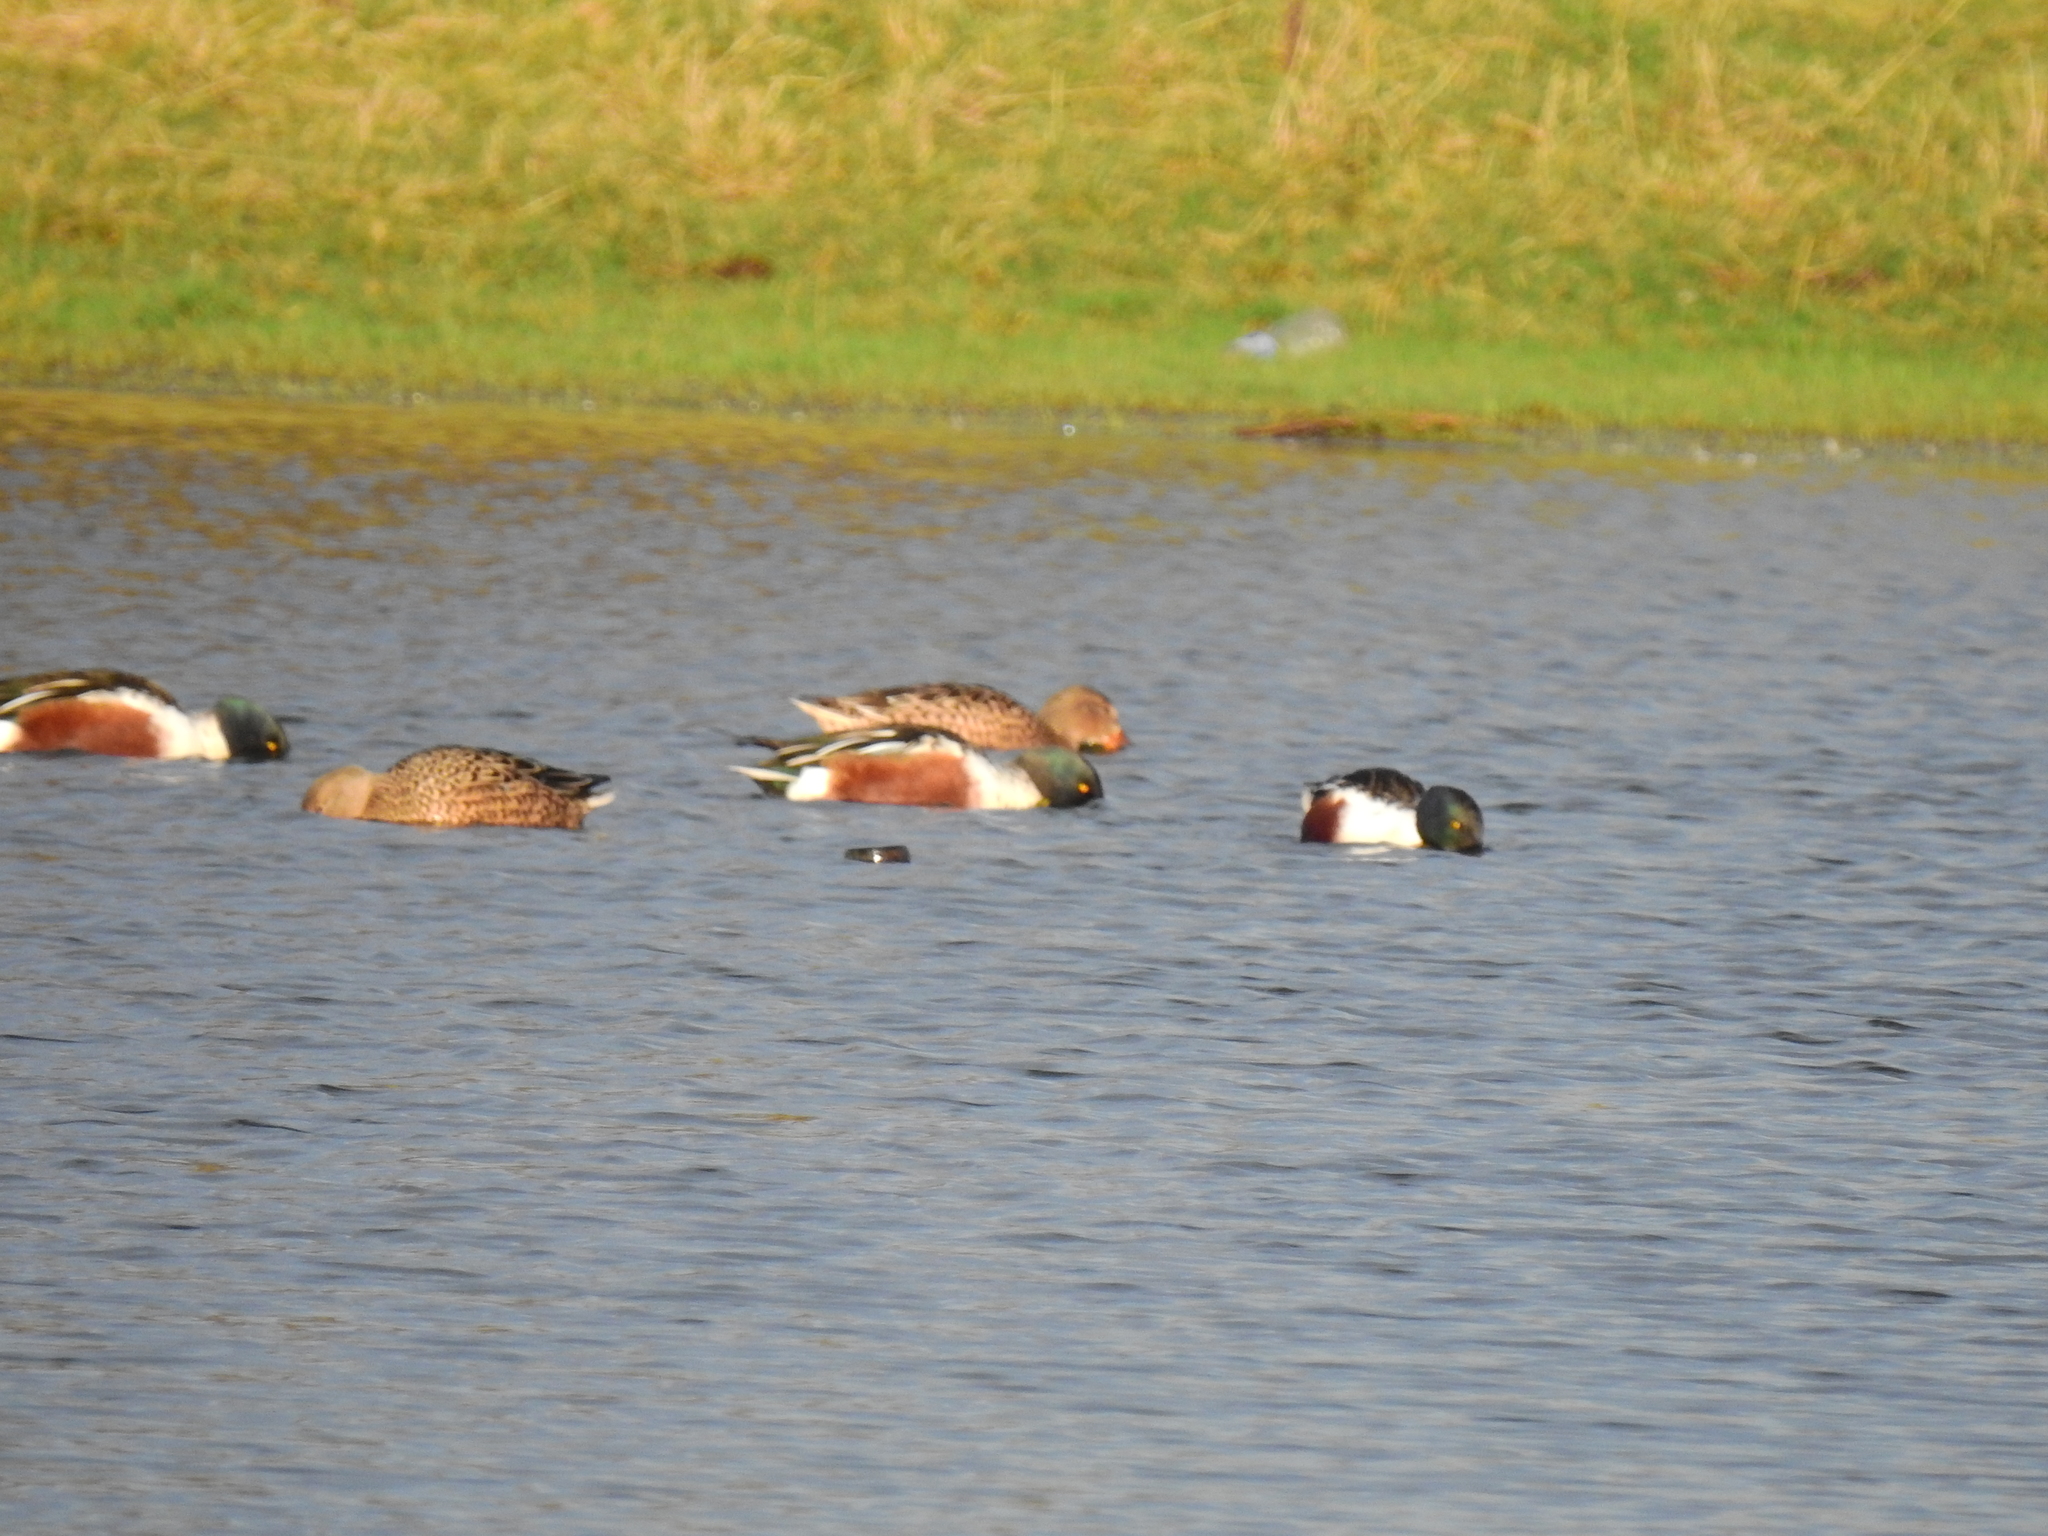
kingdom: Animalia
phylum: Chordata
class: Aves
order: Anseriformes
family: Anatidae
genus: Spatula
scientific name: Spatula clypeata
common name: Northern shoveler
